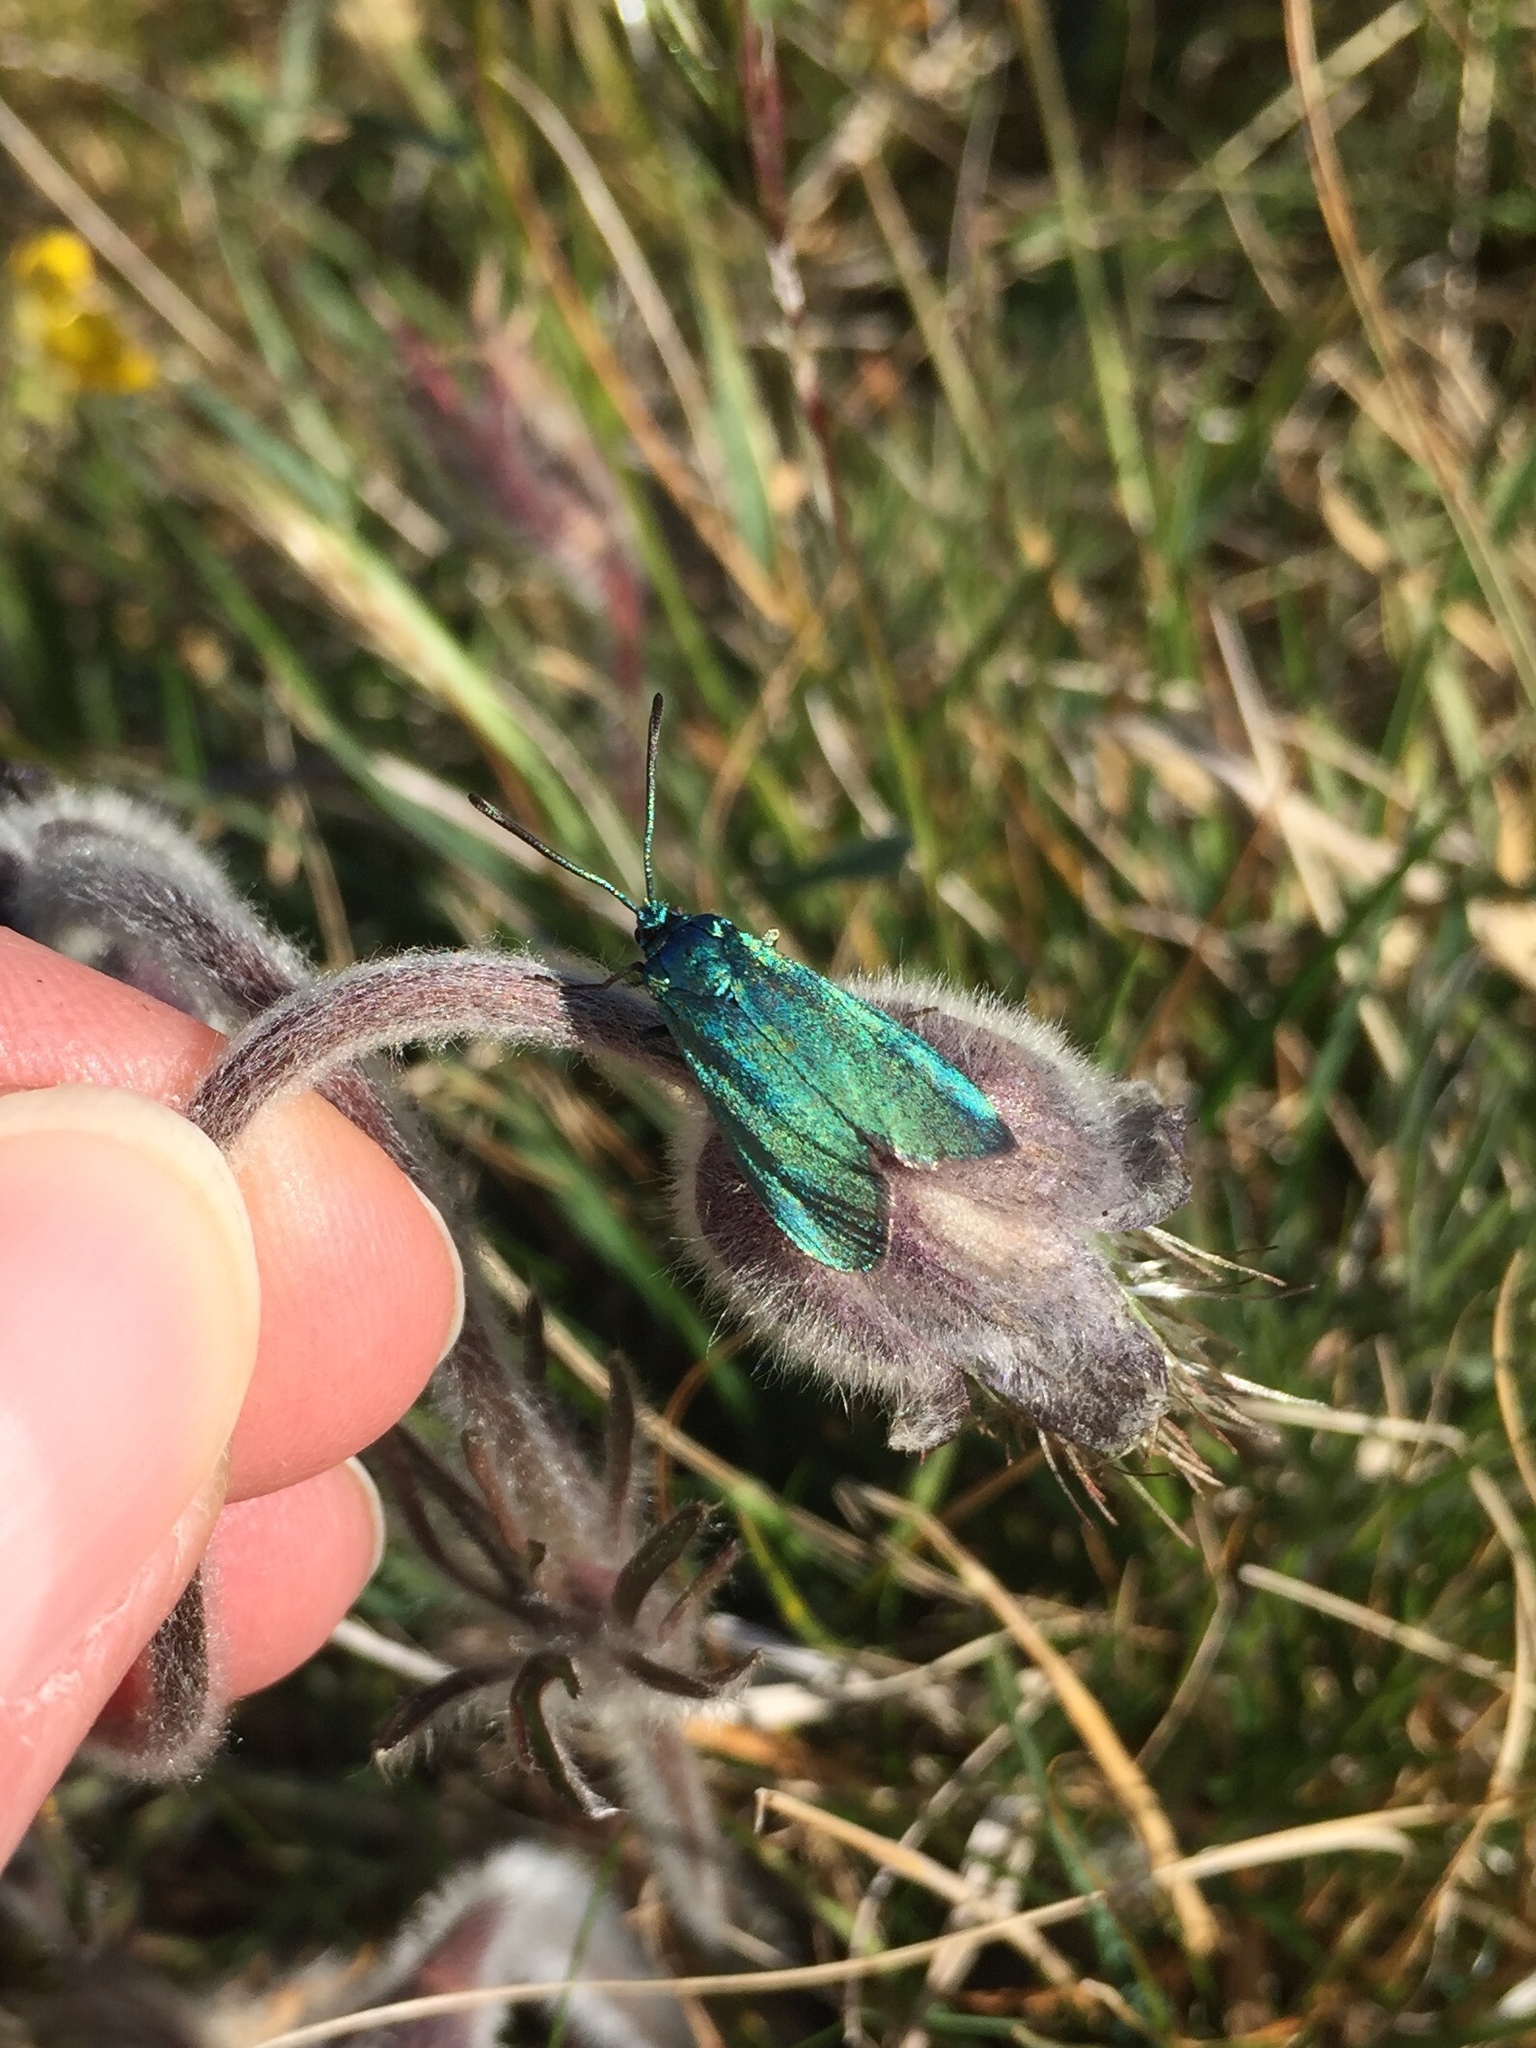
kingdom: Animalia
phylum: Arthropoda
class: Insecta
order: Lepidoptera
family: Zygaenidae
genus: Adscita
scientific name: Adscita statices
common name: Forester
